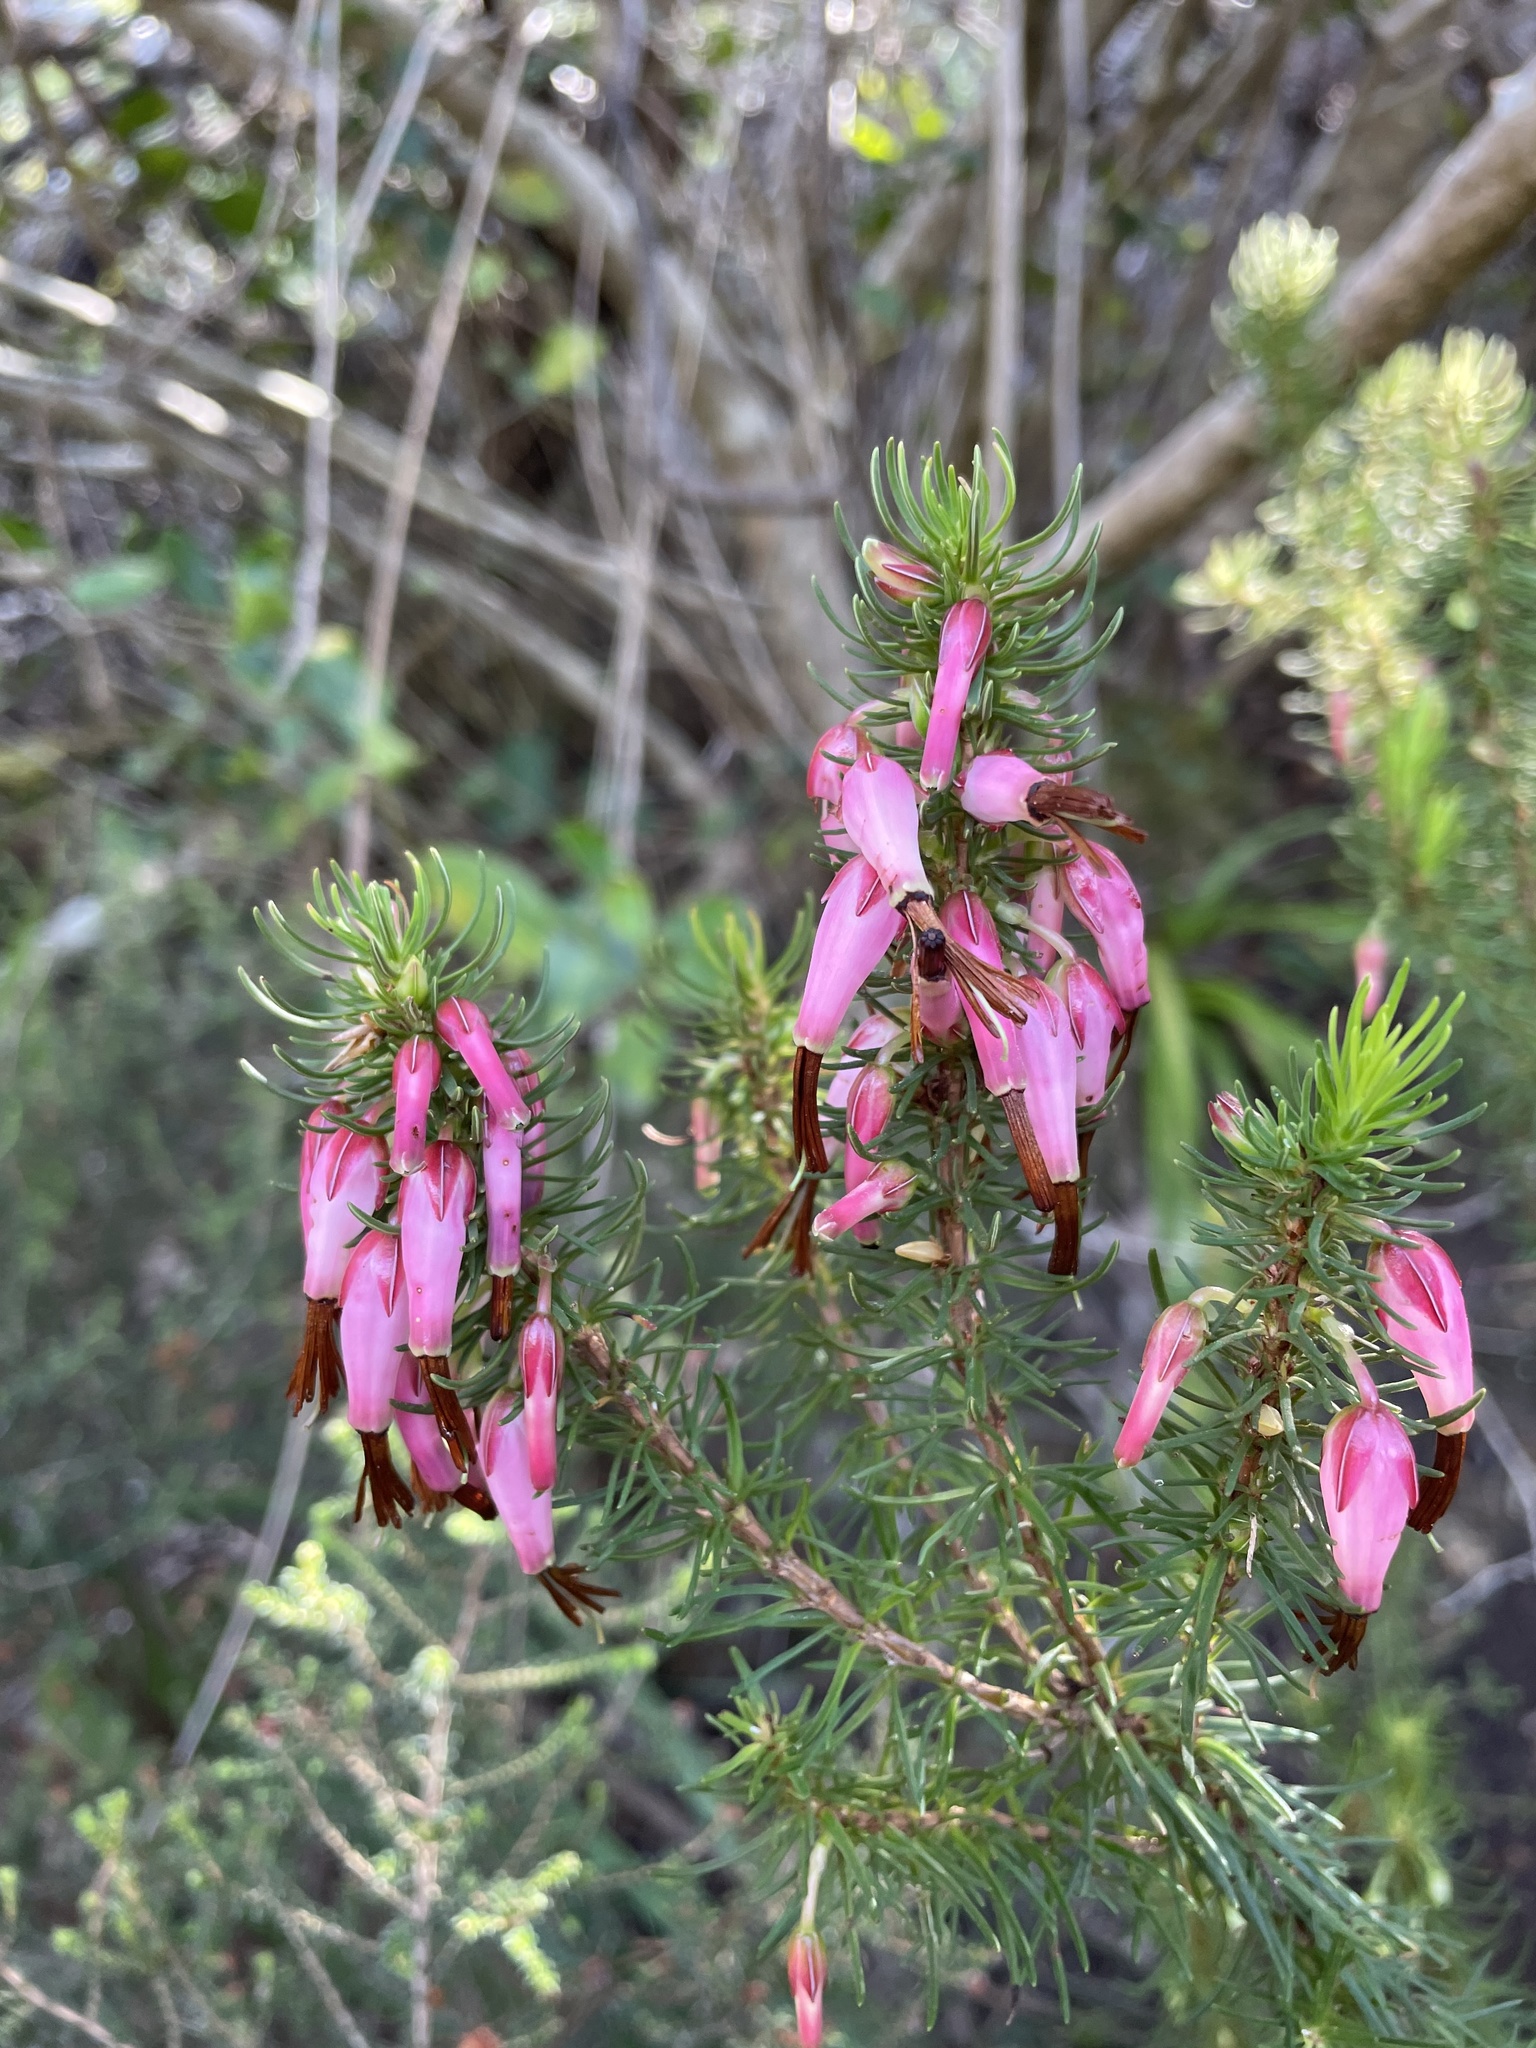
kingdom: Plantae
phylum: Tracheophyta
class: Magnoliopsida
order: Ericales
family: Ericaceae
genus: Erica
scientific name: Erica plukenetii
